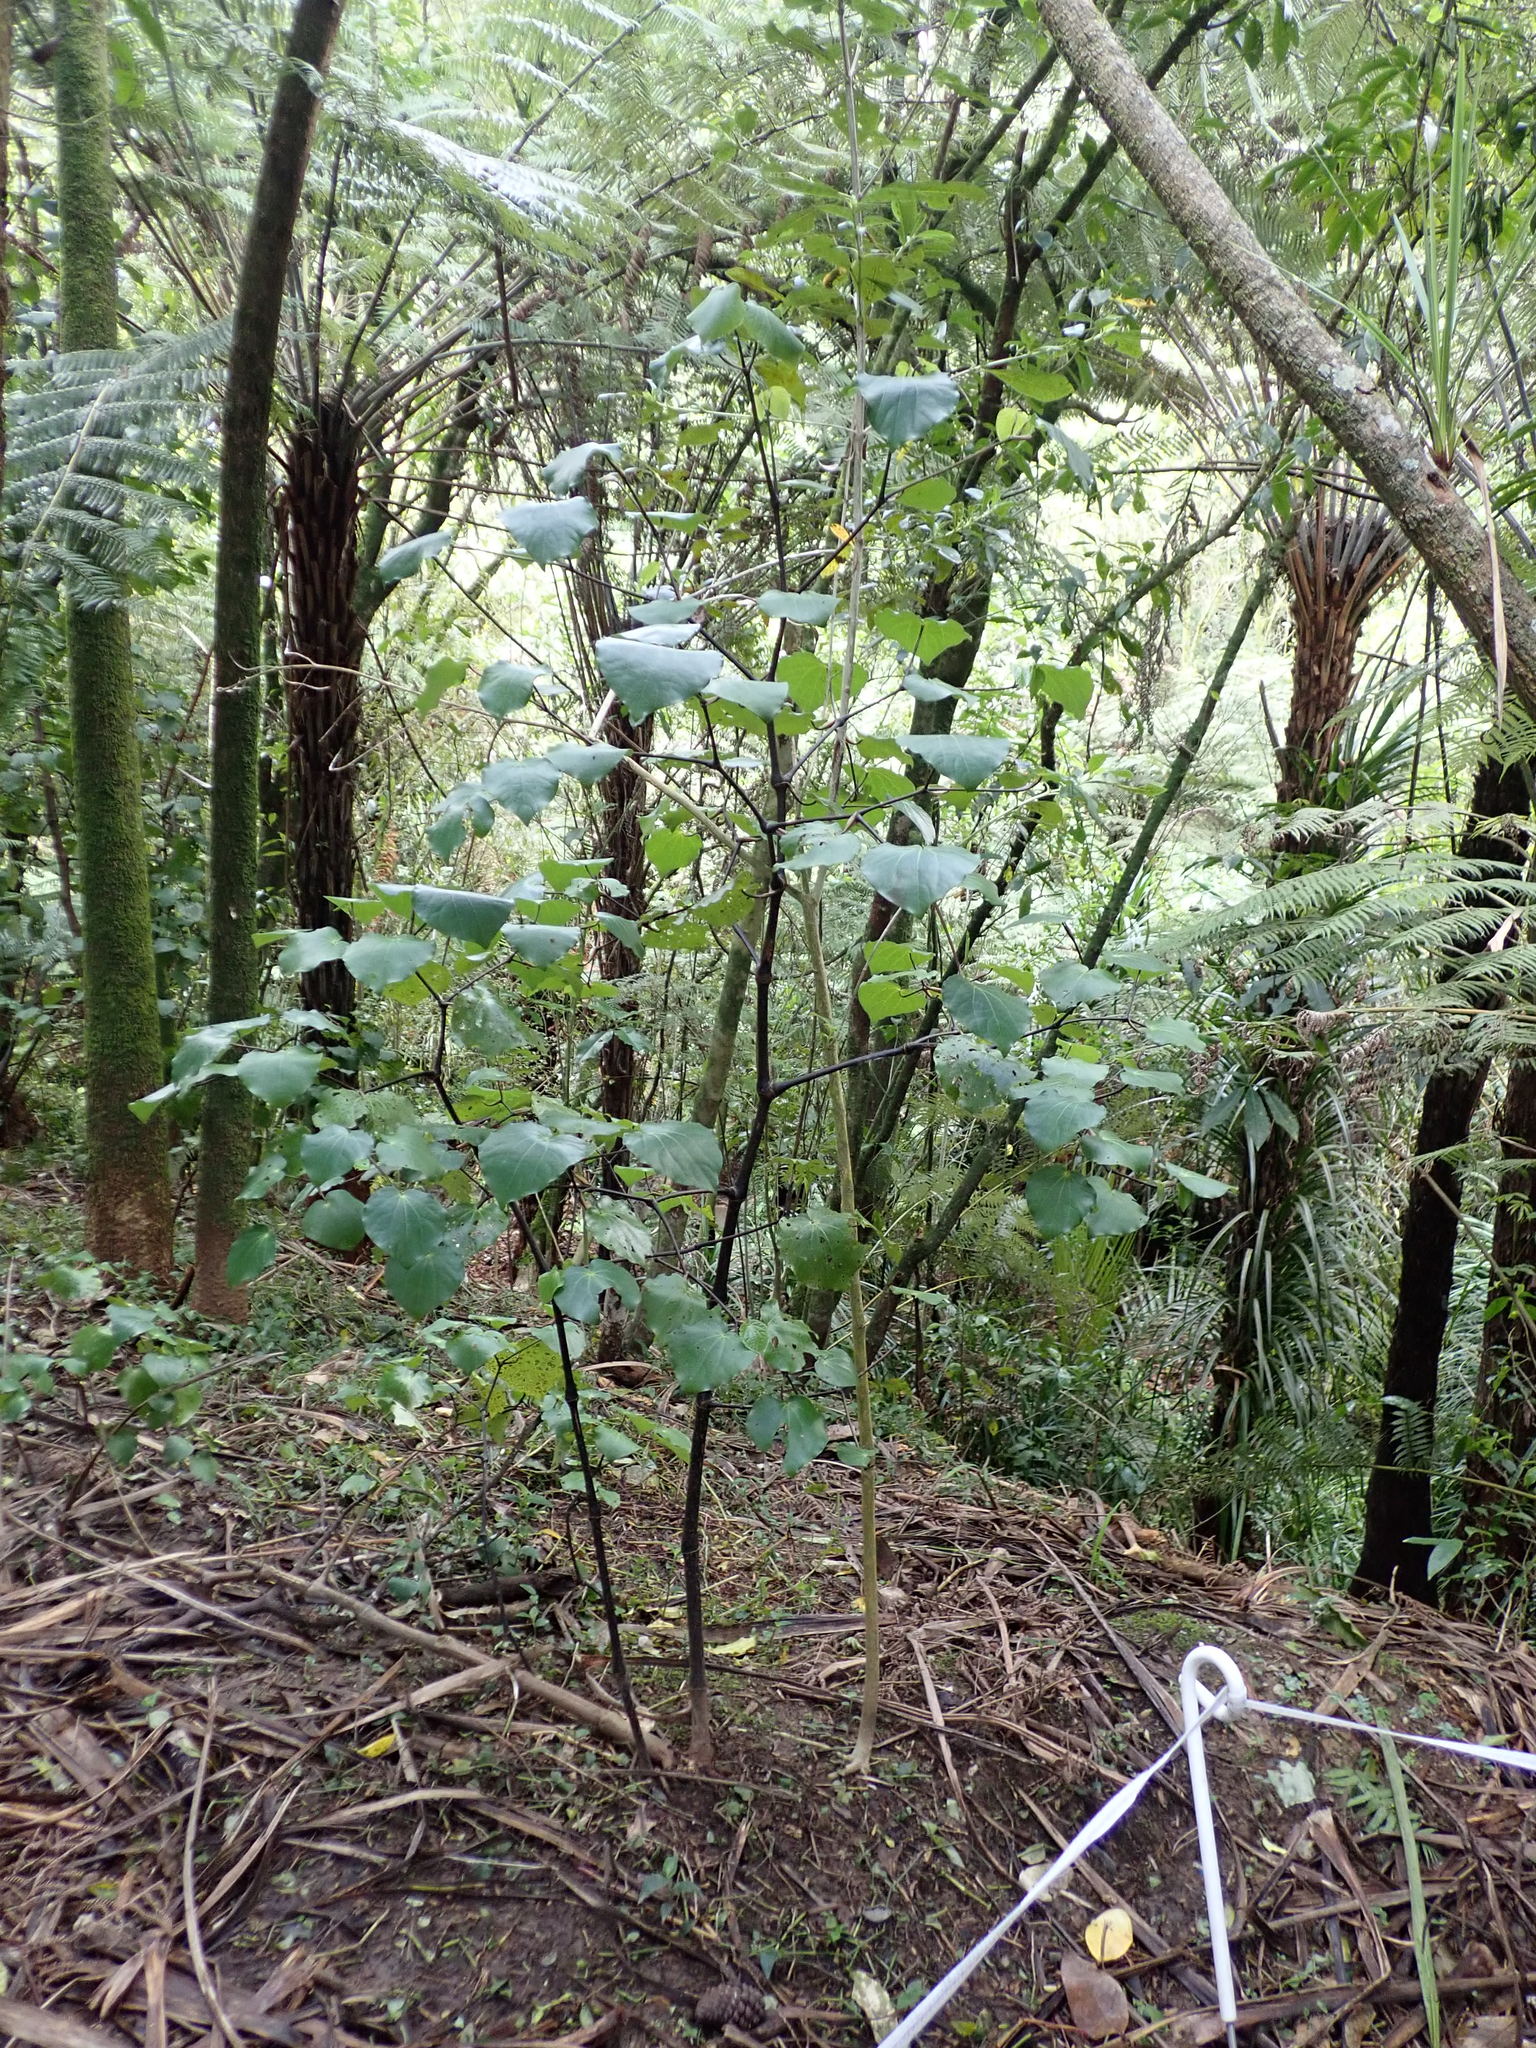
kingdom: Plantae
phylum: Tracheophyta
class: Magnoliopsida
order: Piperales
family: Piperaceae
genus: Macropiper
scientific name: Macropiper excelsum
